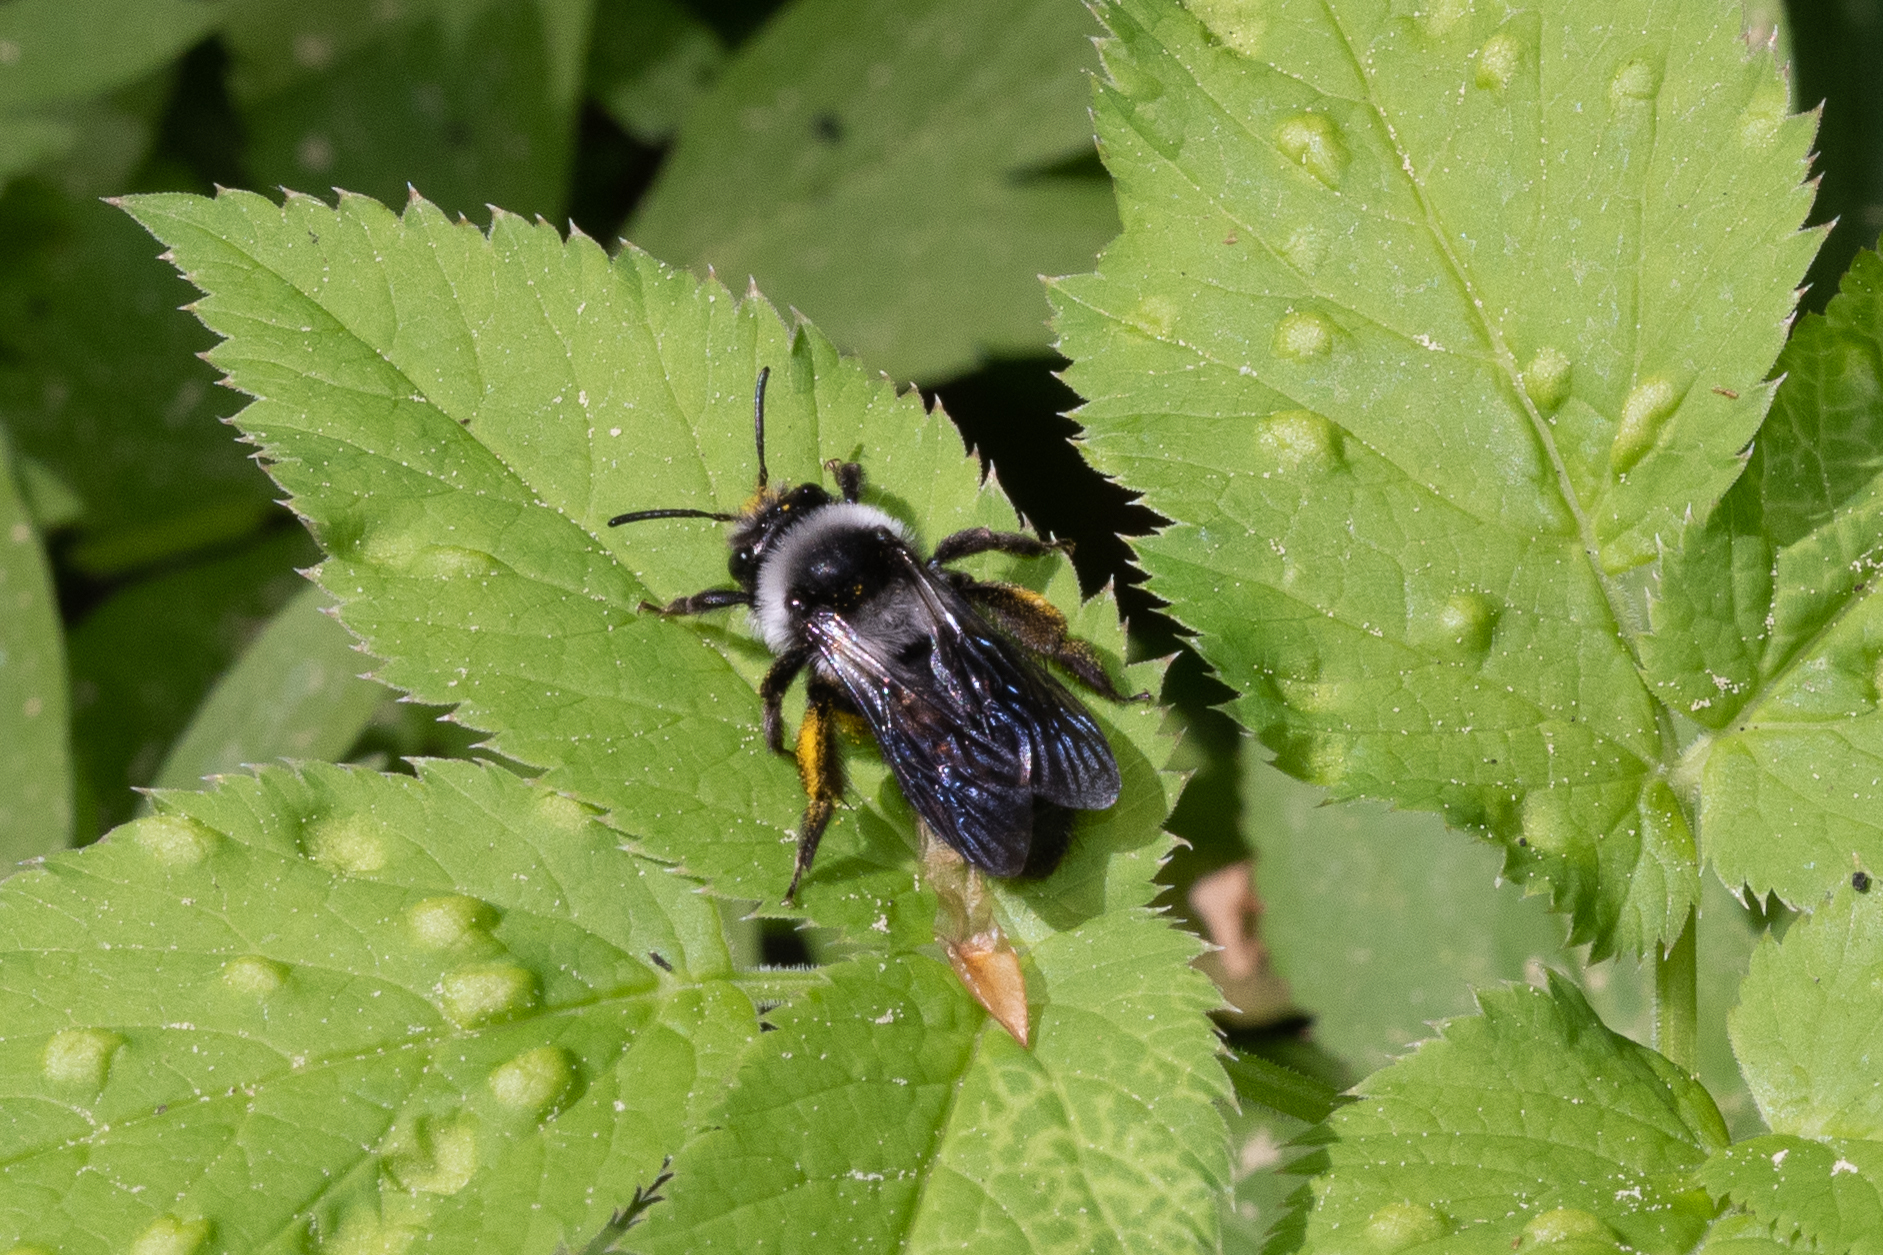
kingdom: Animalia
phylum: Arthropoda
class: Insecta
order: Hymenoptera
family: Andrenidae
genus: Andrena
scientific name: Andrena cineraria
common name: Ashy mining bee
